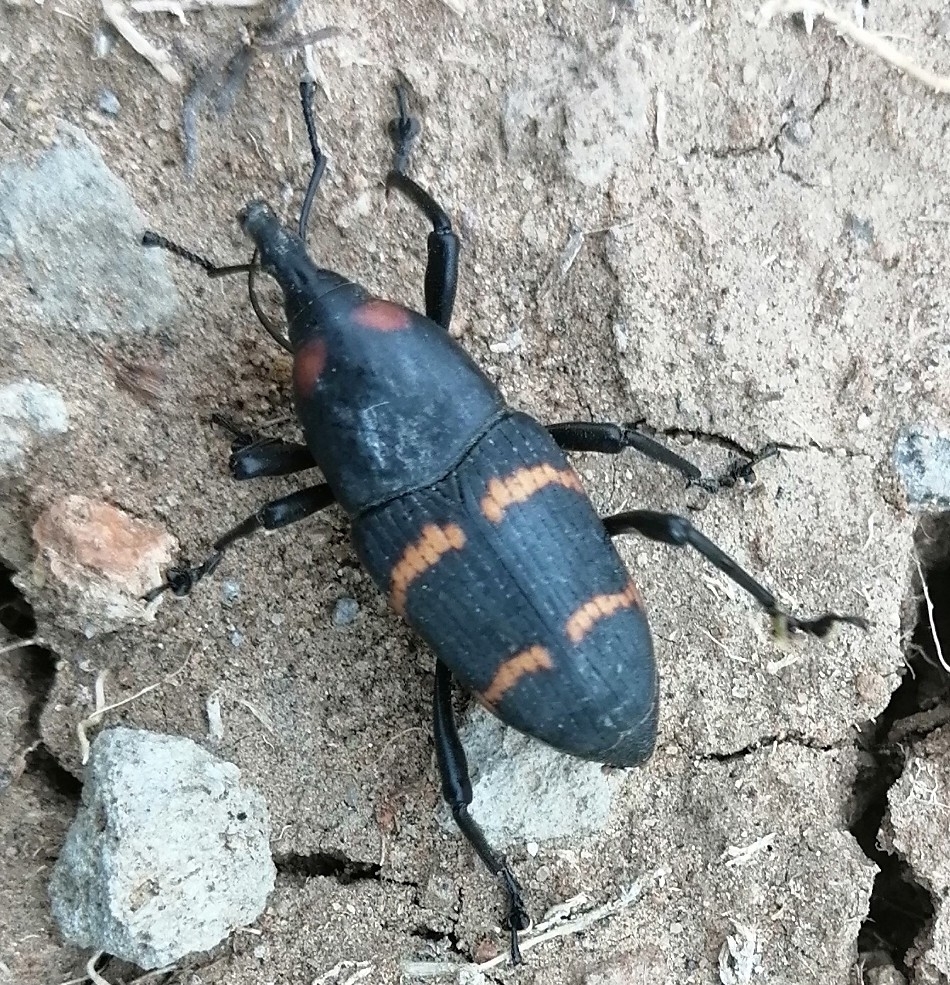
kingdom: Animalia
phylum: Arthropoda
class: Insecta
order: Coleoptera
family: Dryophthoridae
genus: Cactophagus
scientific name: Cactophagus spinolae
